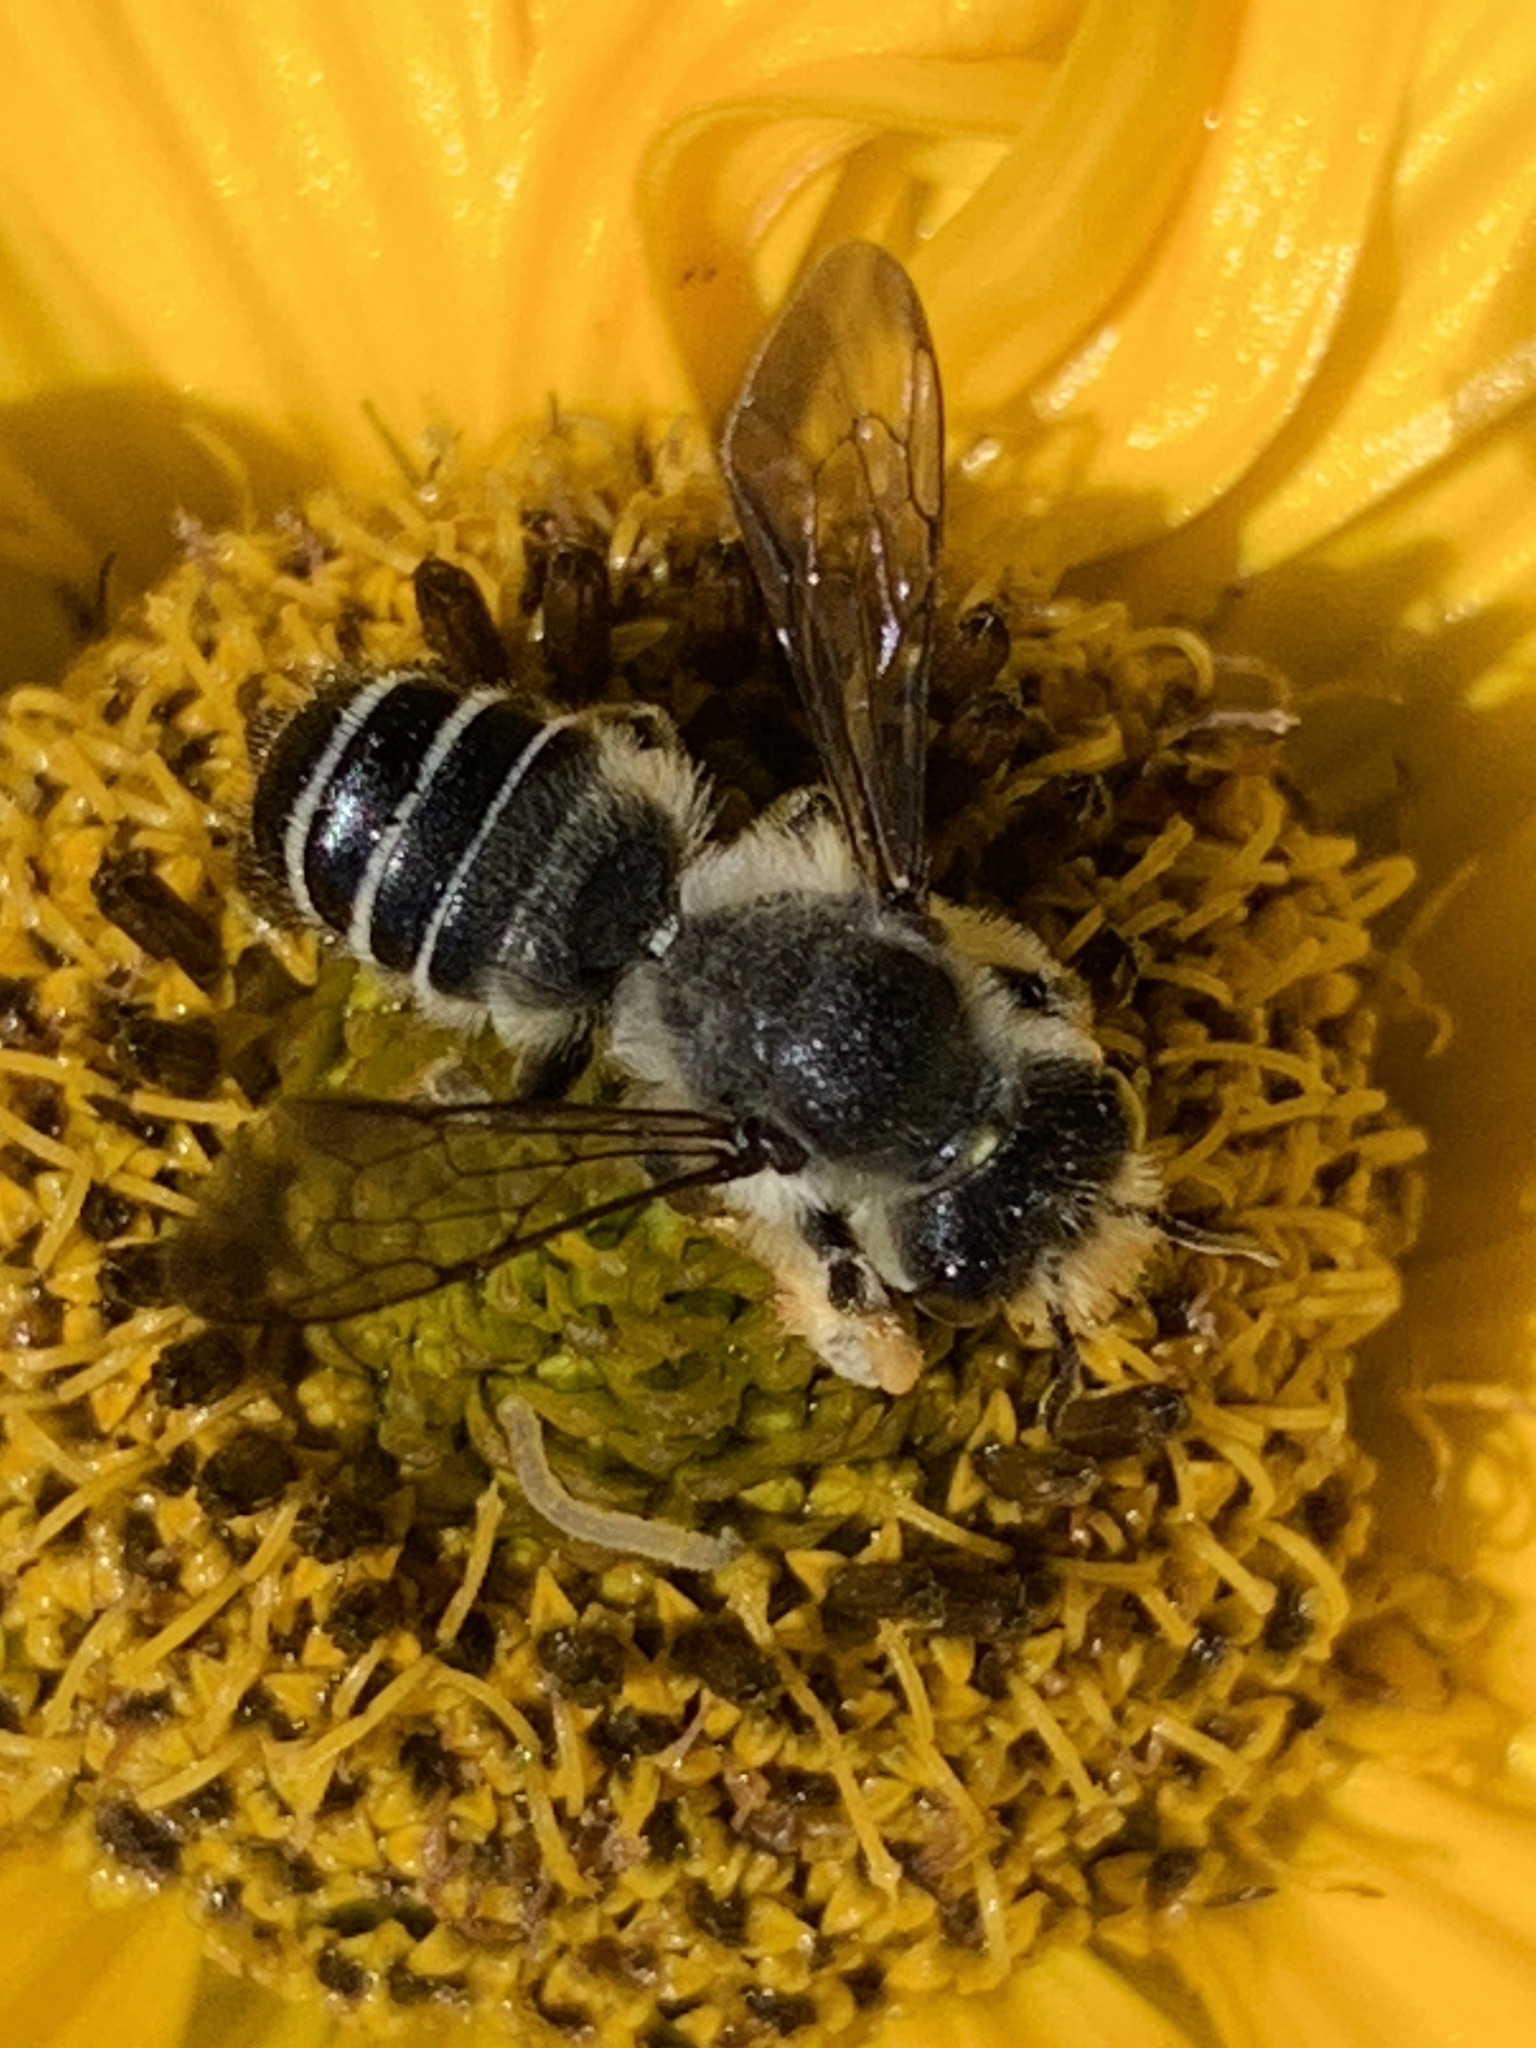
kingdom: Animalia
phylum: Arthropoda
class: Insecta
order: Hymenoptera
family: Megachilidae
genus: Megachile
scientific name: Megachile pugnata
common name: Pugnacious leafcutter bee
